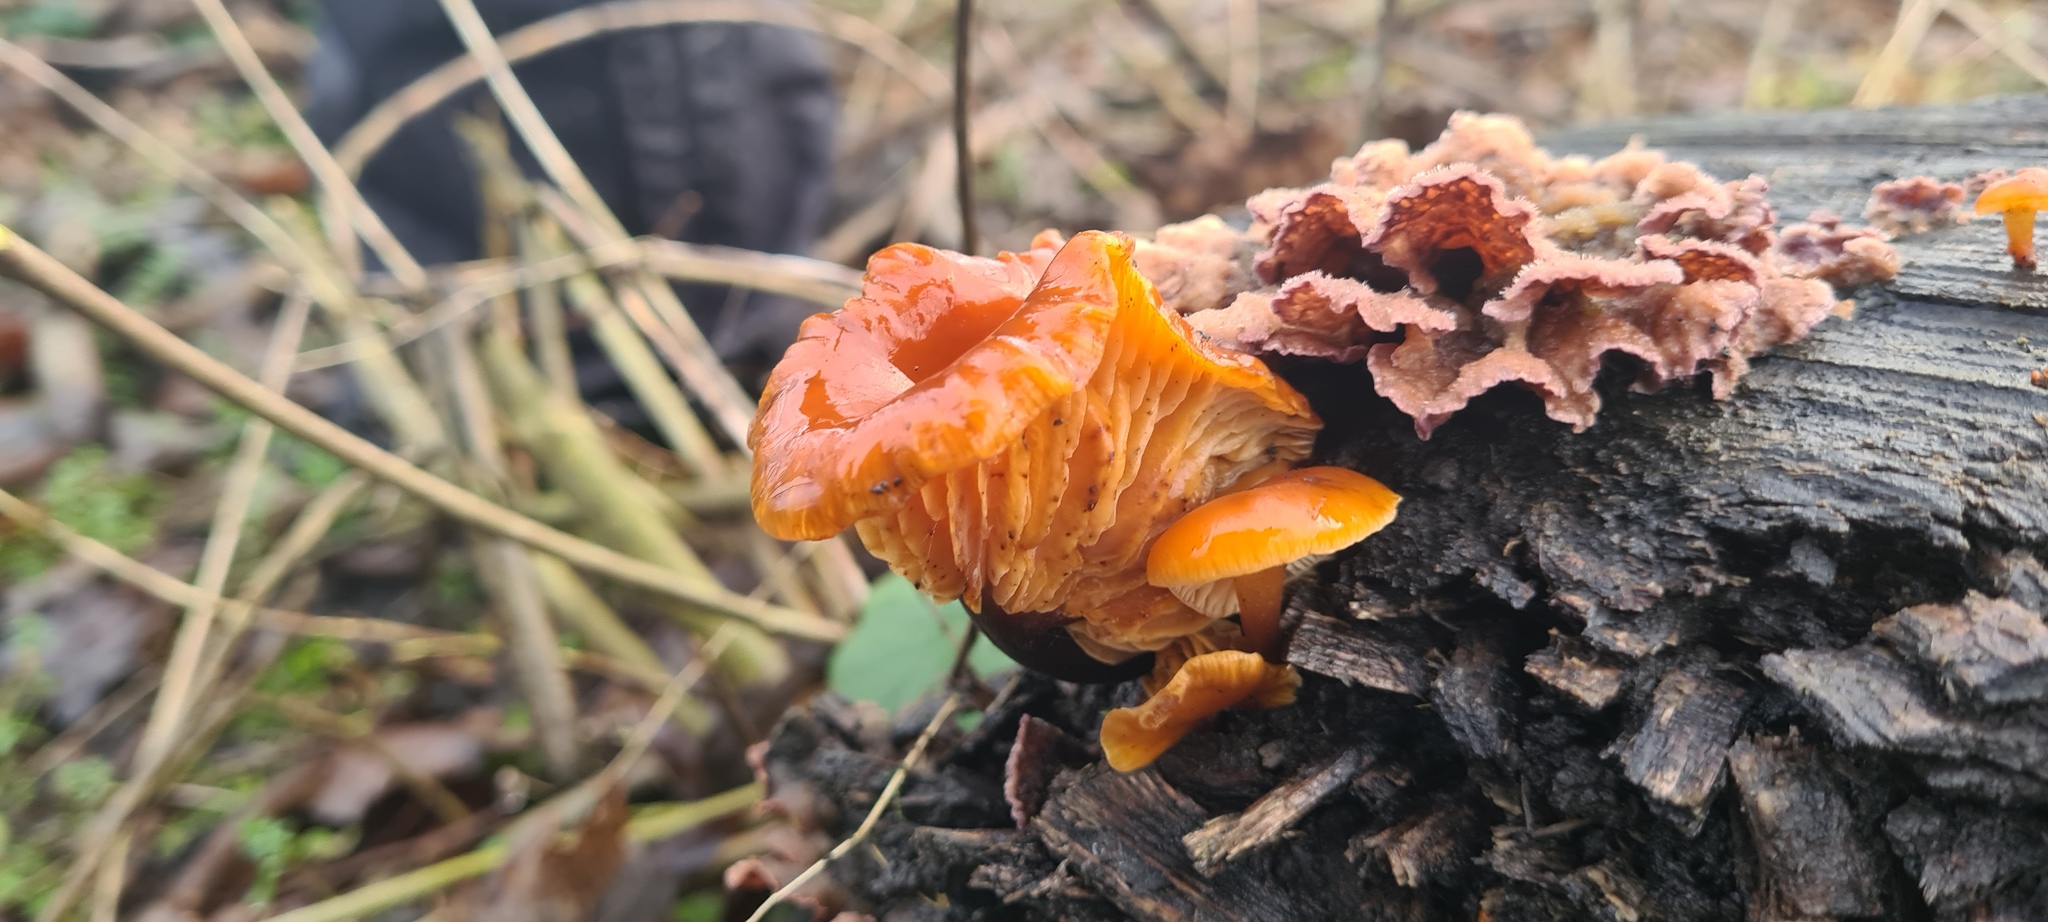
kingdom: Fungi
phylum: Basidiomycota
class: Agaricomycetes
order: Agaricales
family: Physalacriaceae
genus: Flammulina
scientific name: Flammulina
